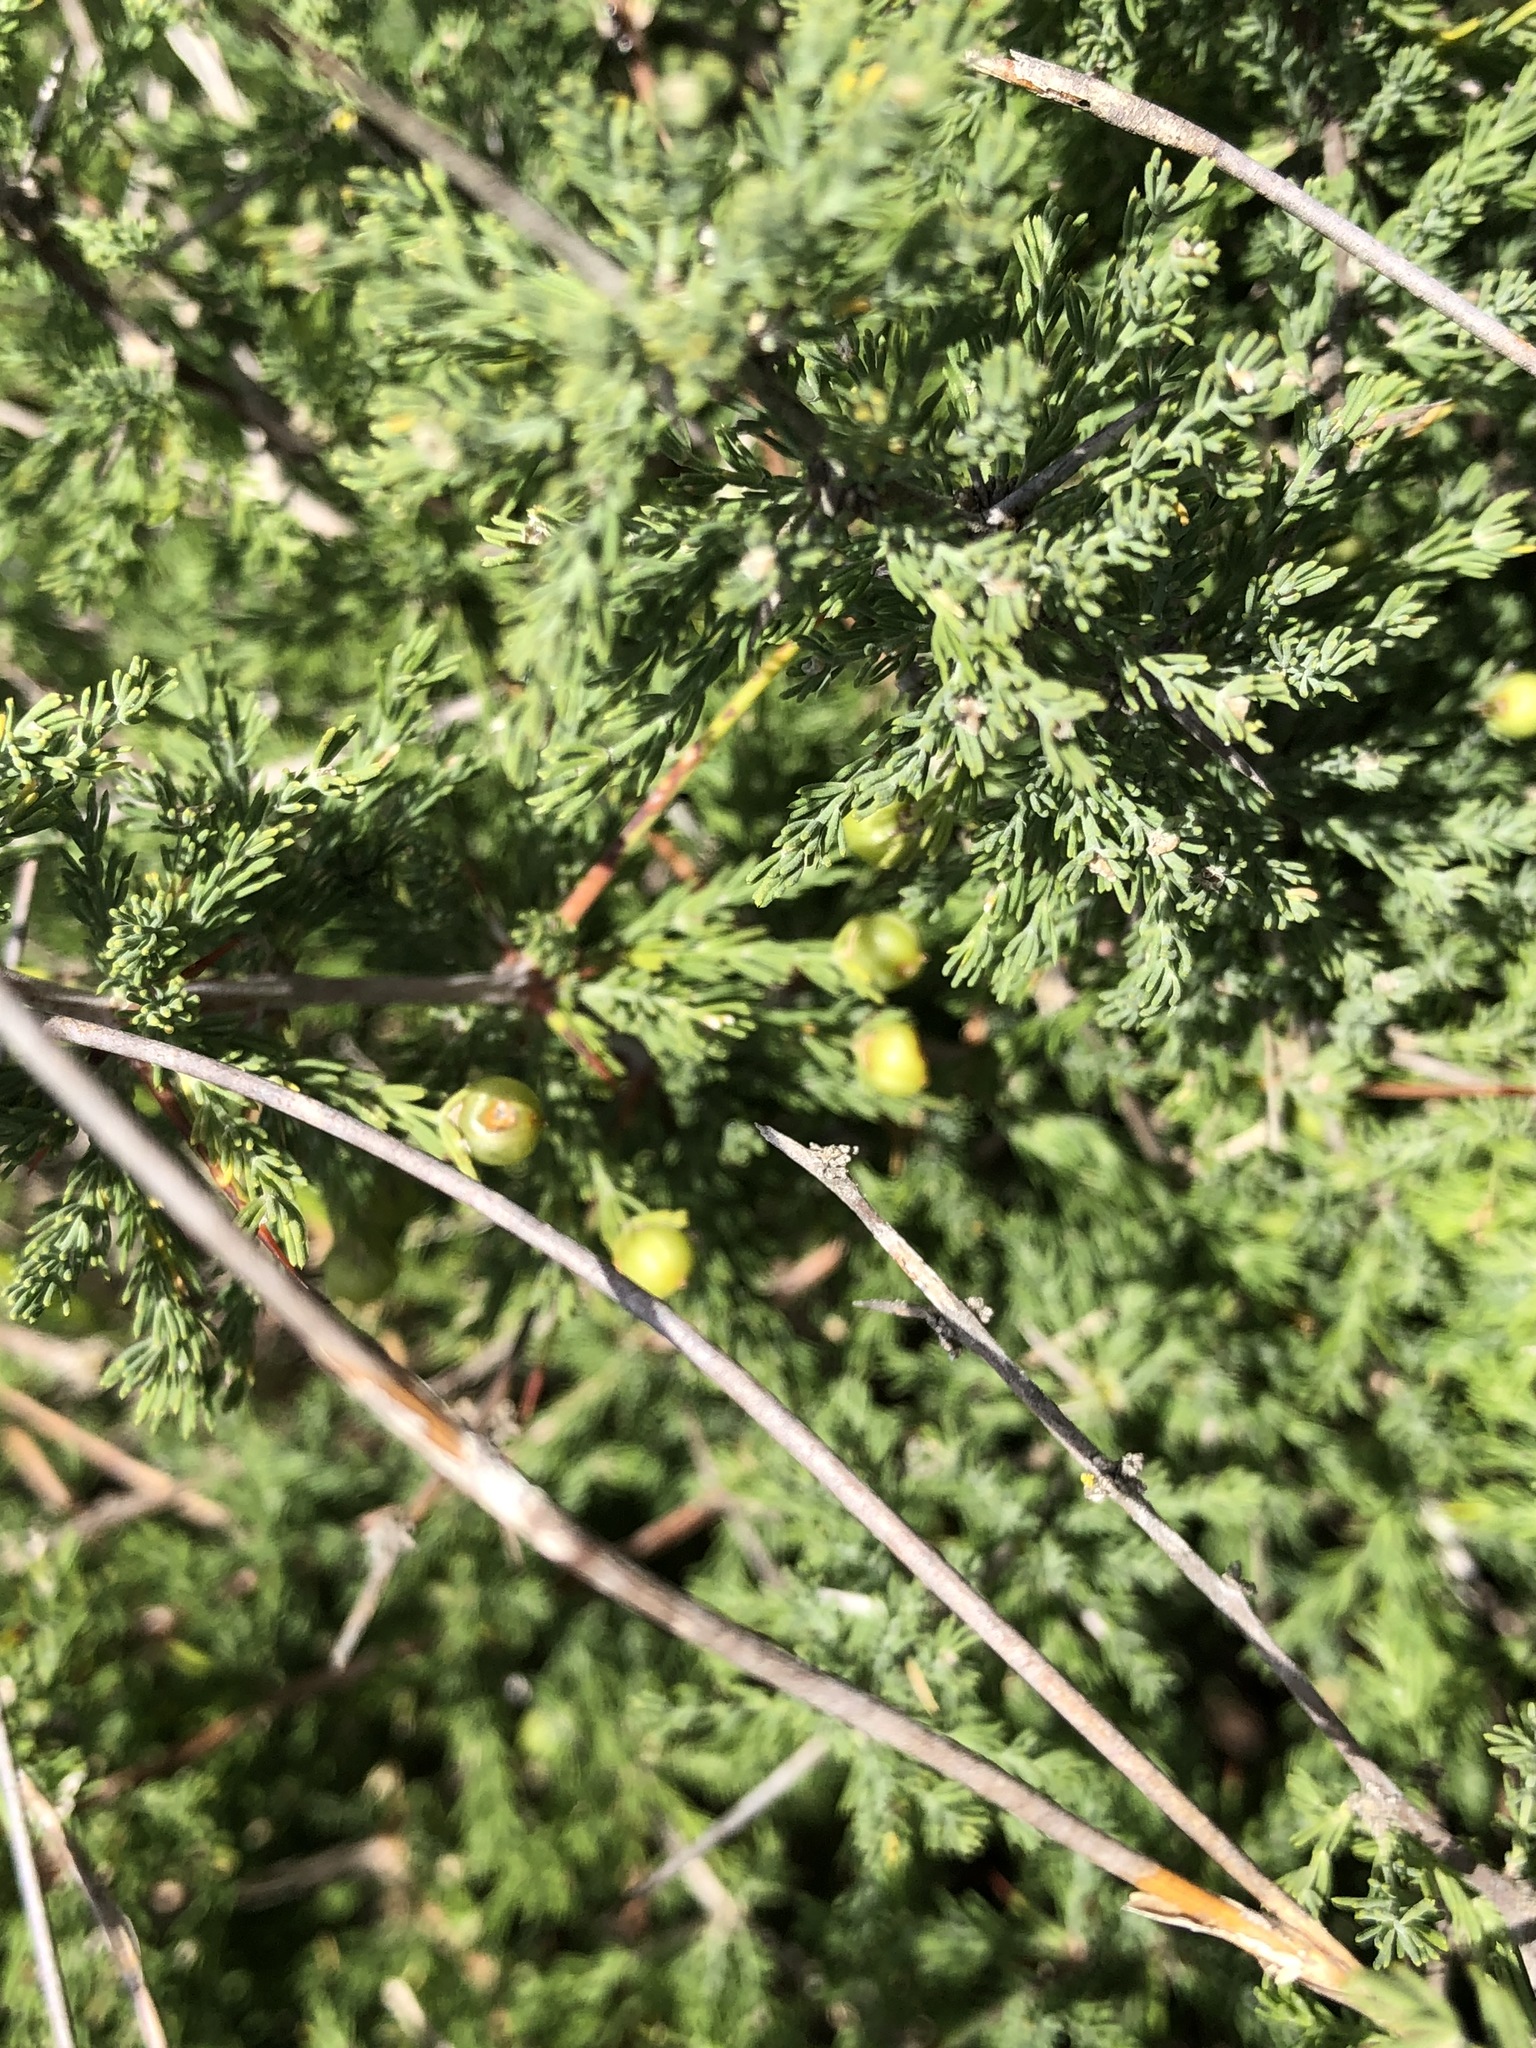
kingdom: Plantae
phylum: Tracheophyta
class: Liliopsida
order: Asparagales
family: Asparagaceae
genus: Asparagus
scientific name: Asparagus capensis
